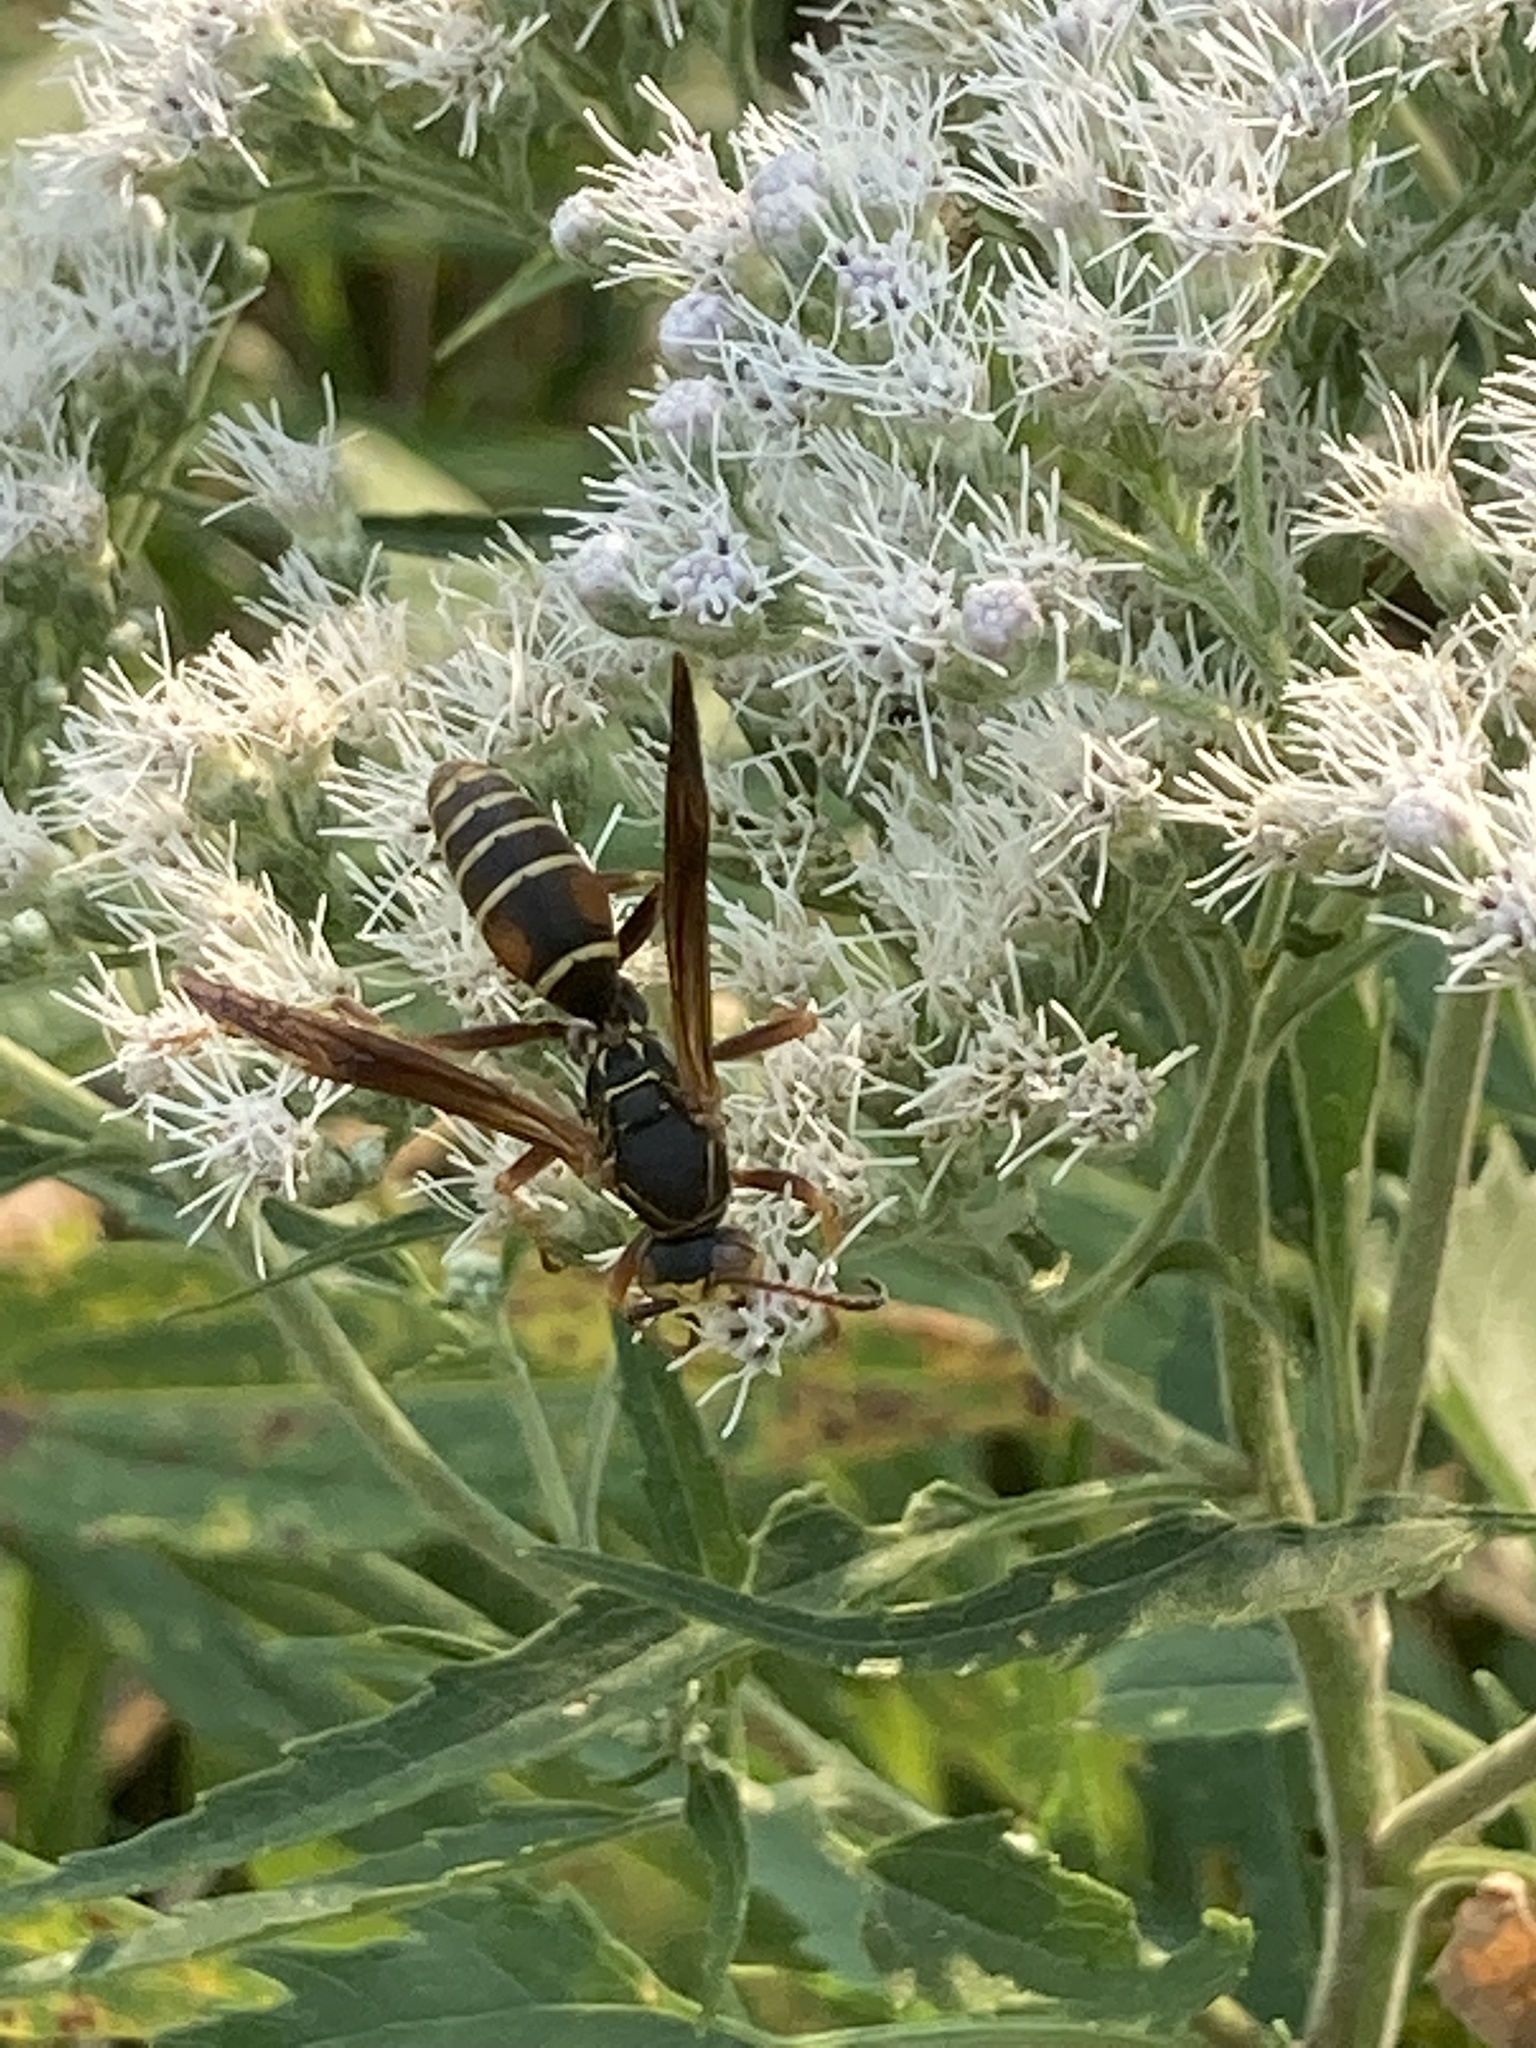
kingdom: Animalia
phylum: Arthropoda
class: Insecta
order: Hymenoptera
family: Eumenidae
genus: Polistes
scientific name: Polistes fuscatus
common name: Dark paper wasp
